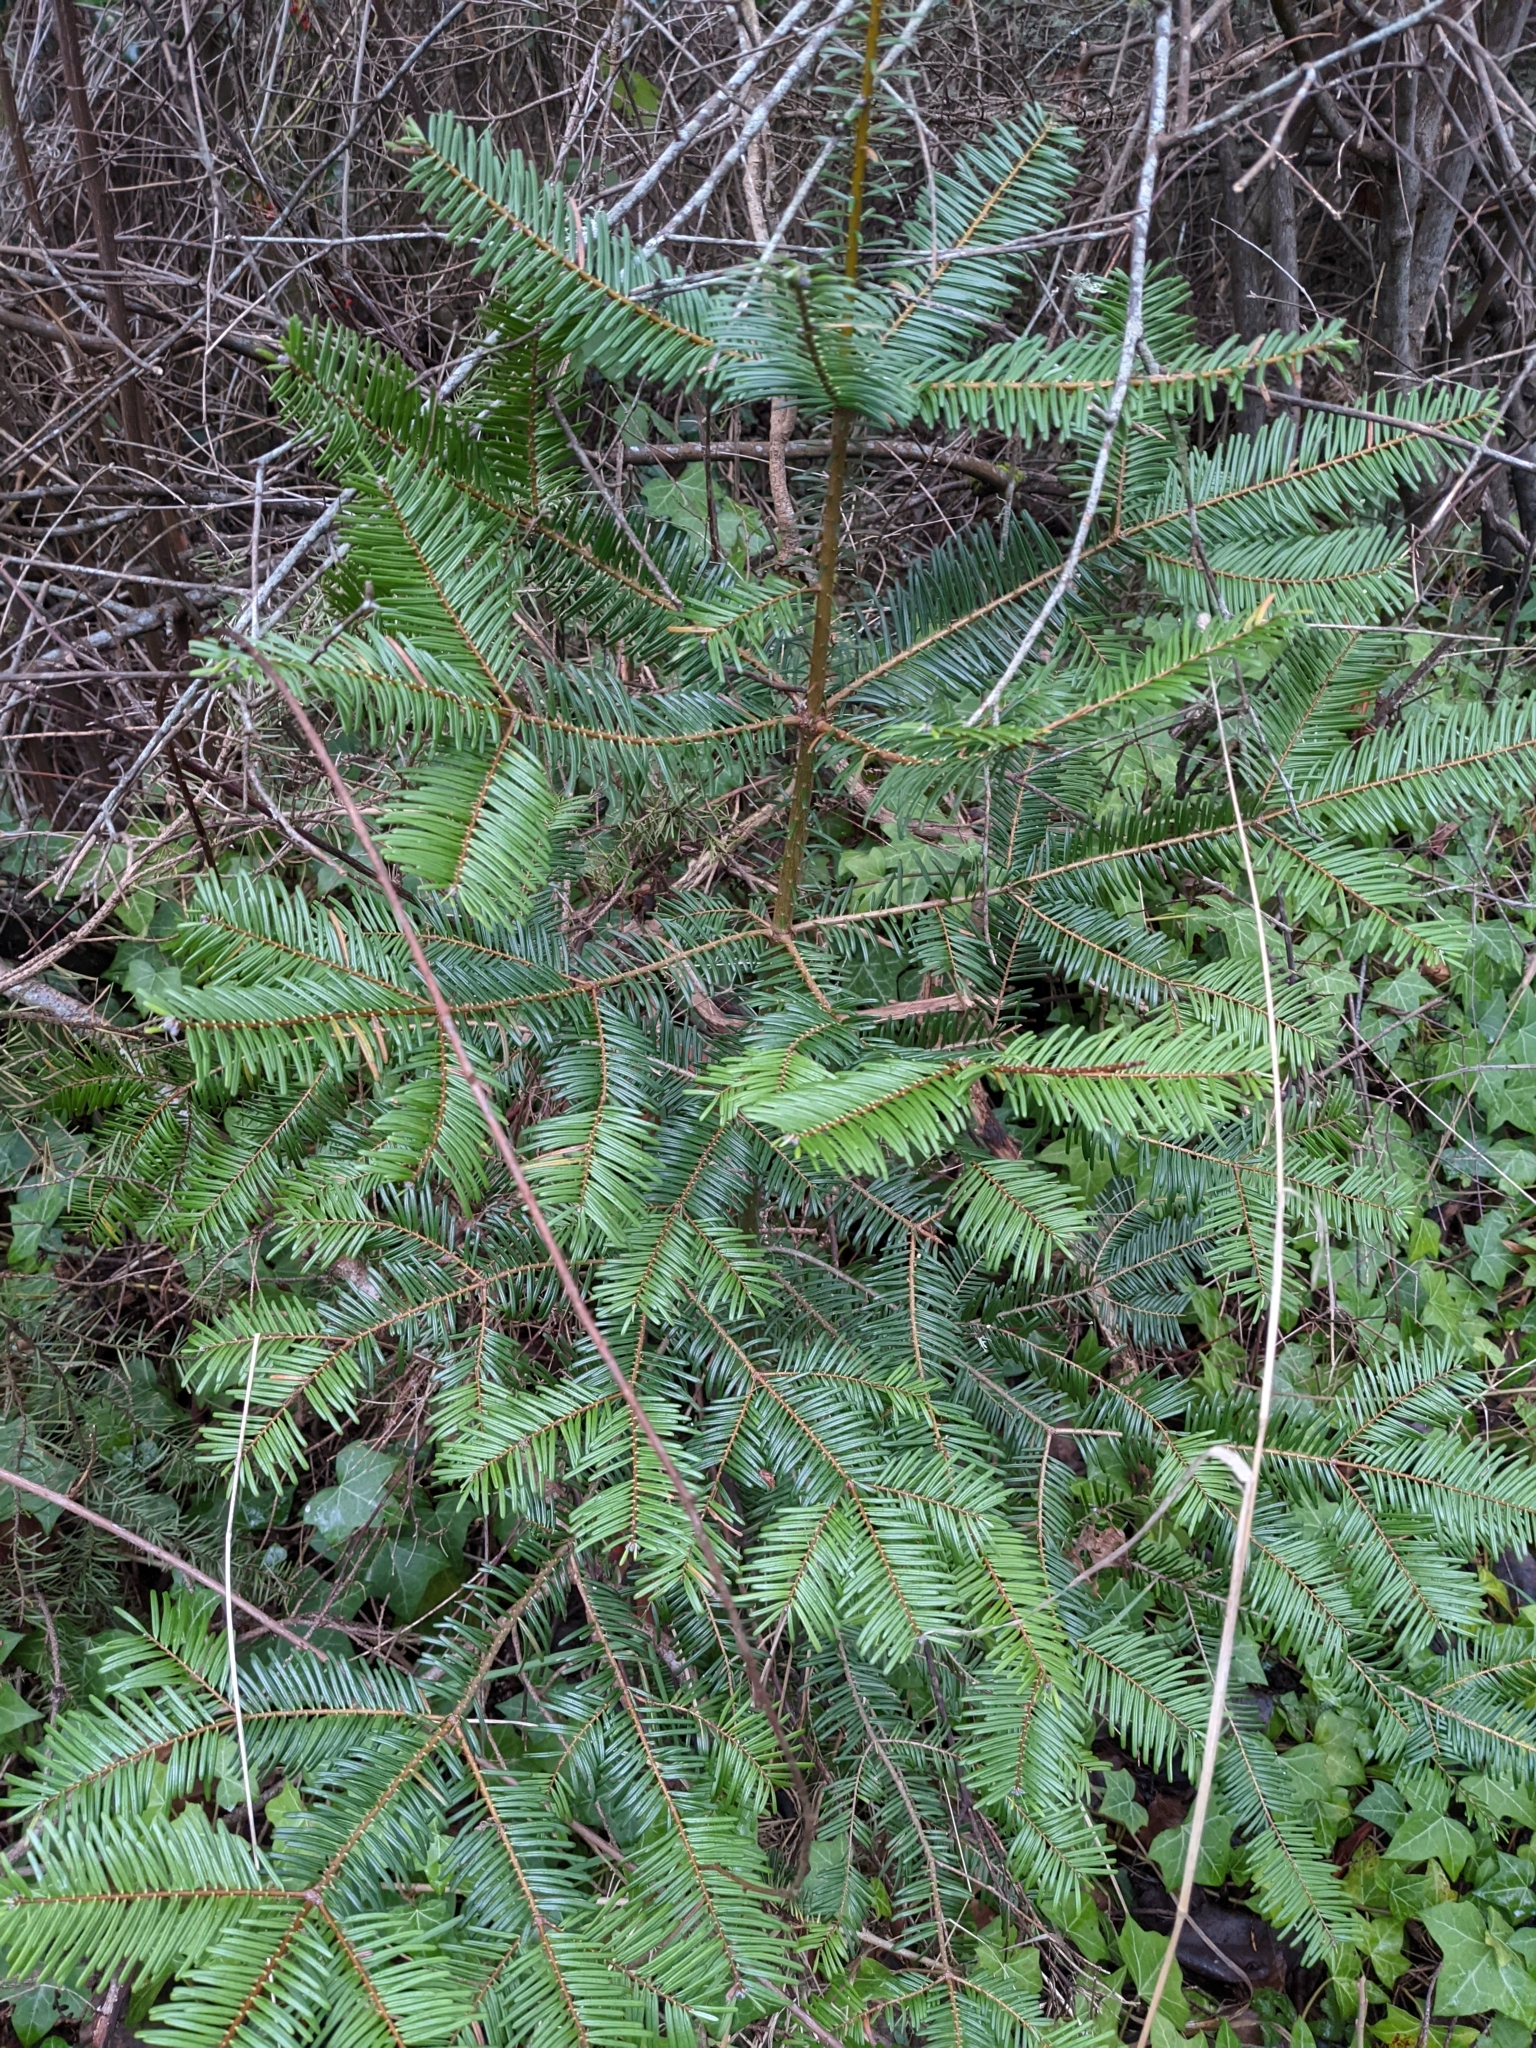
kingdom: Plantae
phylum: Tracheophyta
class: Pinopsida
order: Pinales
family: Pinaceae
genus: Abies
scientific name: Abies grandis
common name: Giant fir
